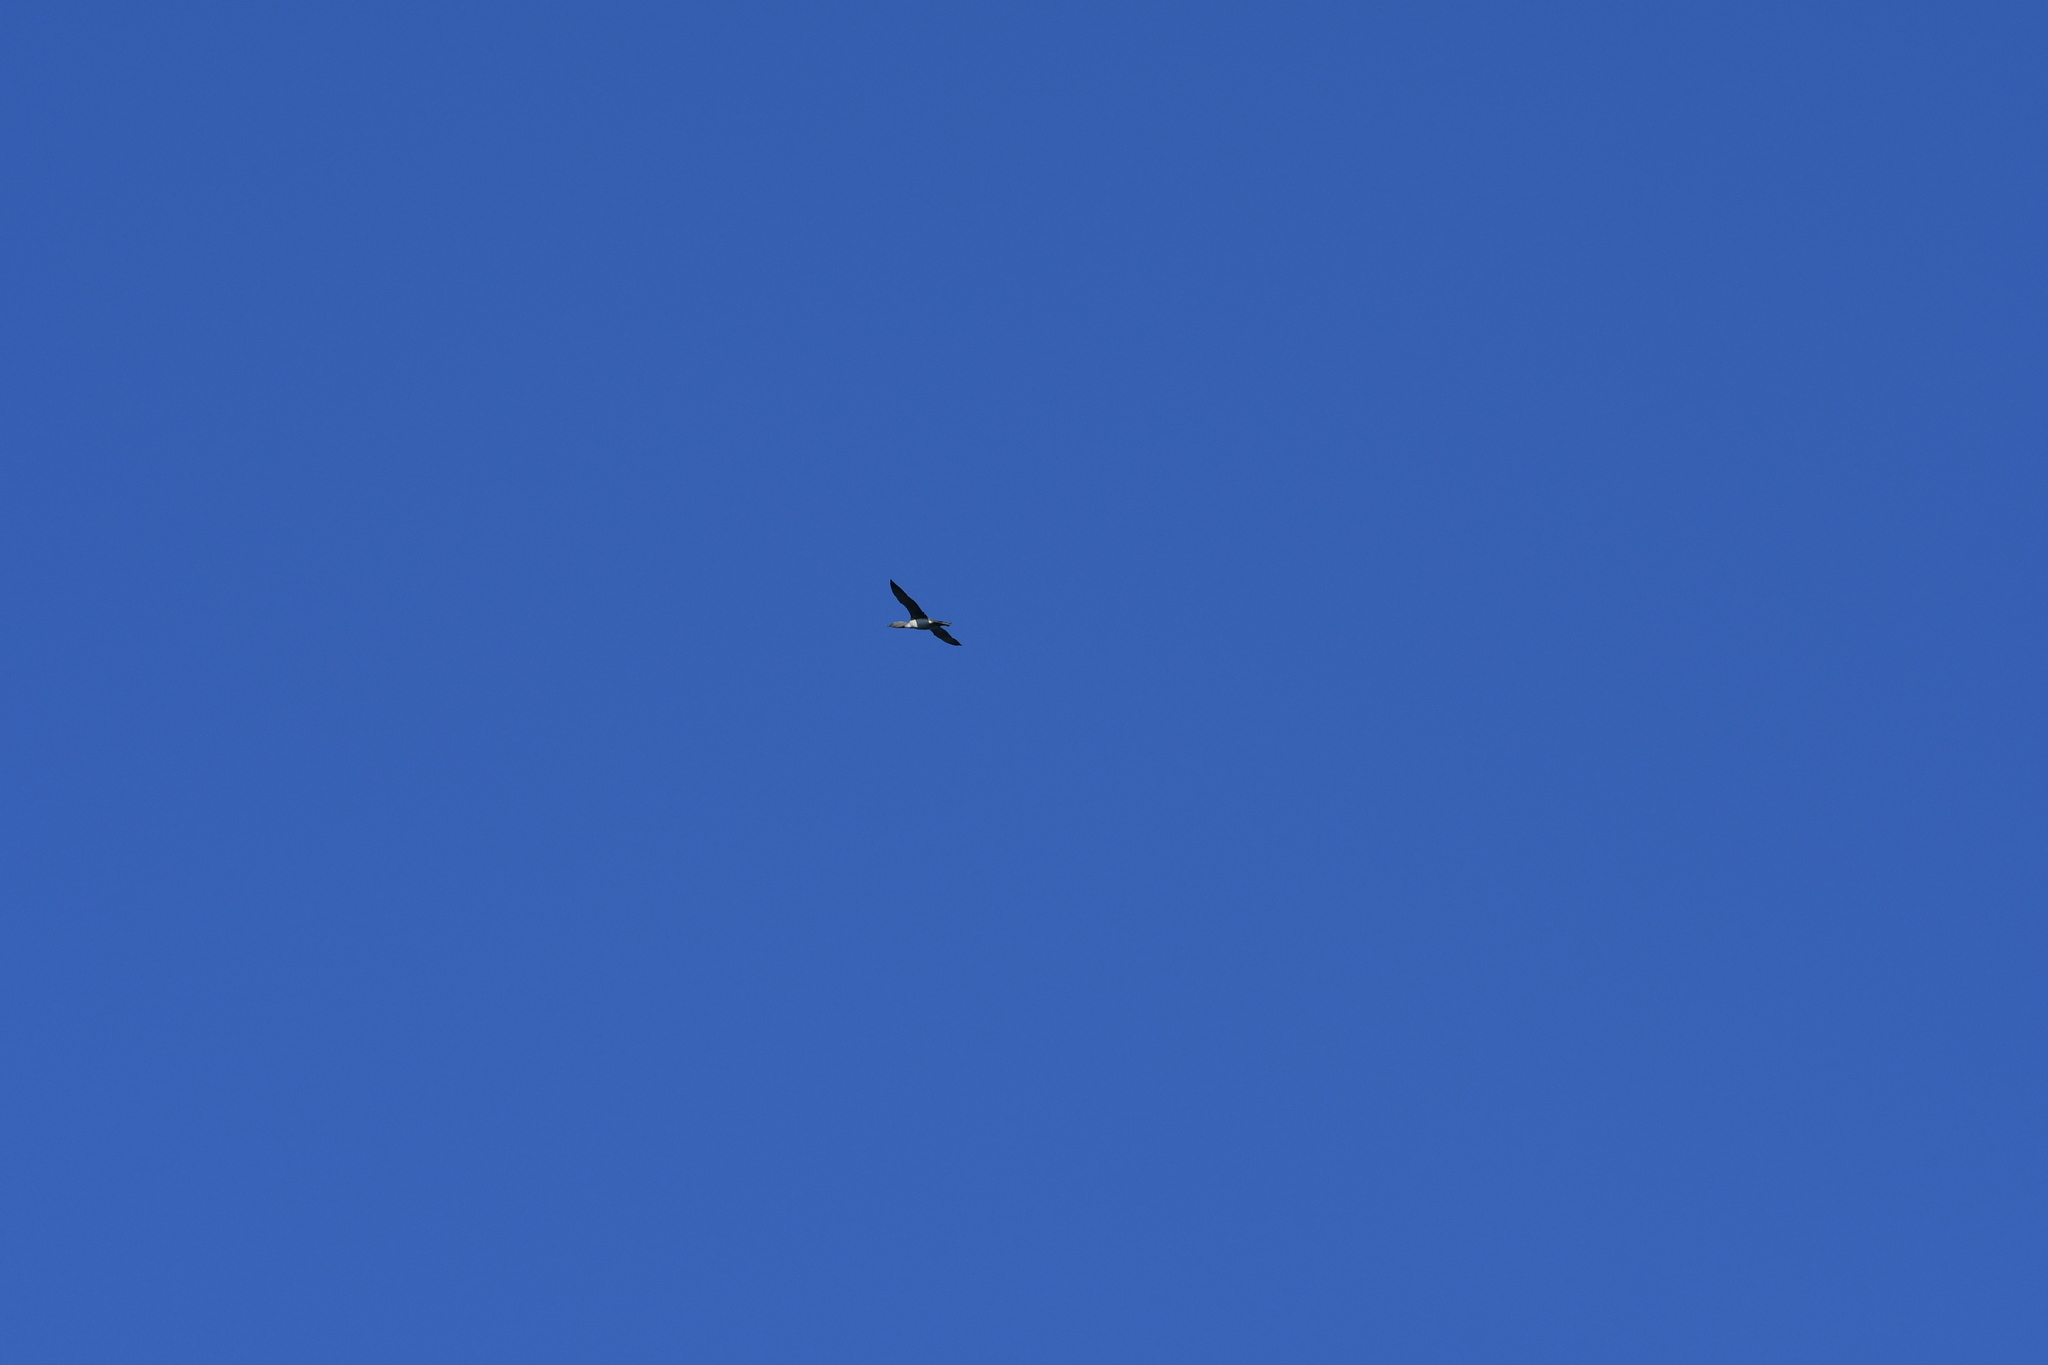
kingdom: Animalia
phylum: Chordata
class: Aves
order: Gaviiformes
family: Gaviidae
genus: Gavia
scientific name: Gavia stellata
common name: Red-throated loon
